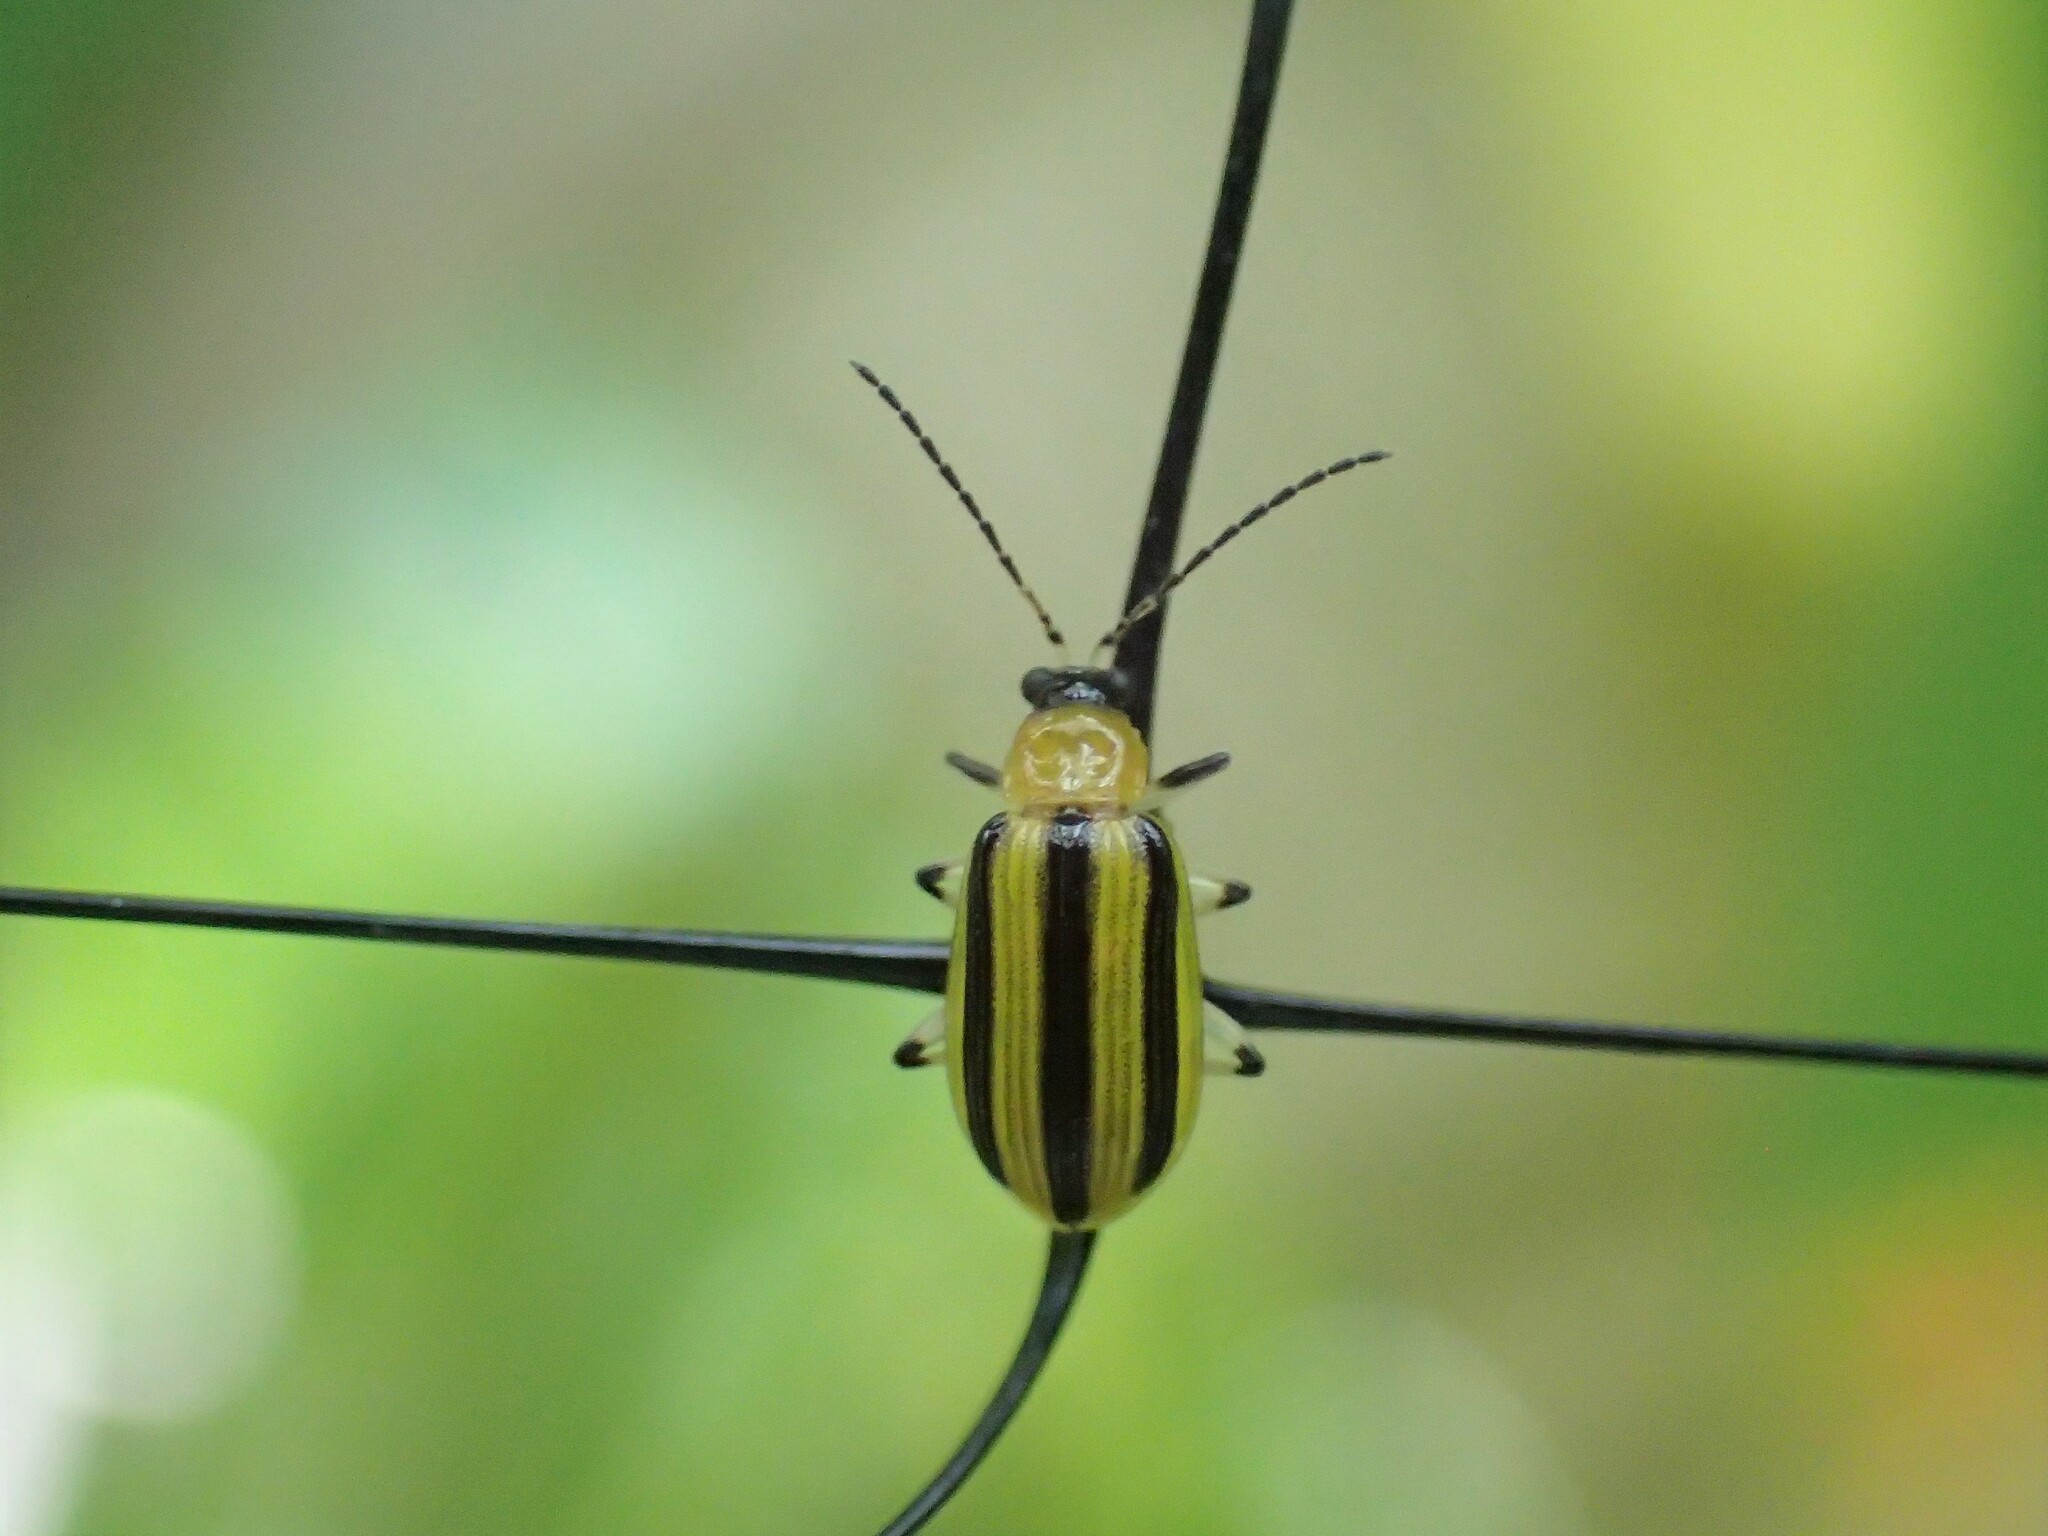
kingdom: Animalia
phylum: Arthropoda
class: Insecta
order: Coleoptera
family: Chrysomelidae
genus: Acalymma
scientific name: Acalymma vittatum
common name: Striped cucumber beetle
